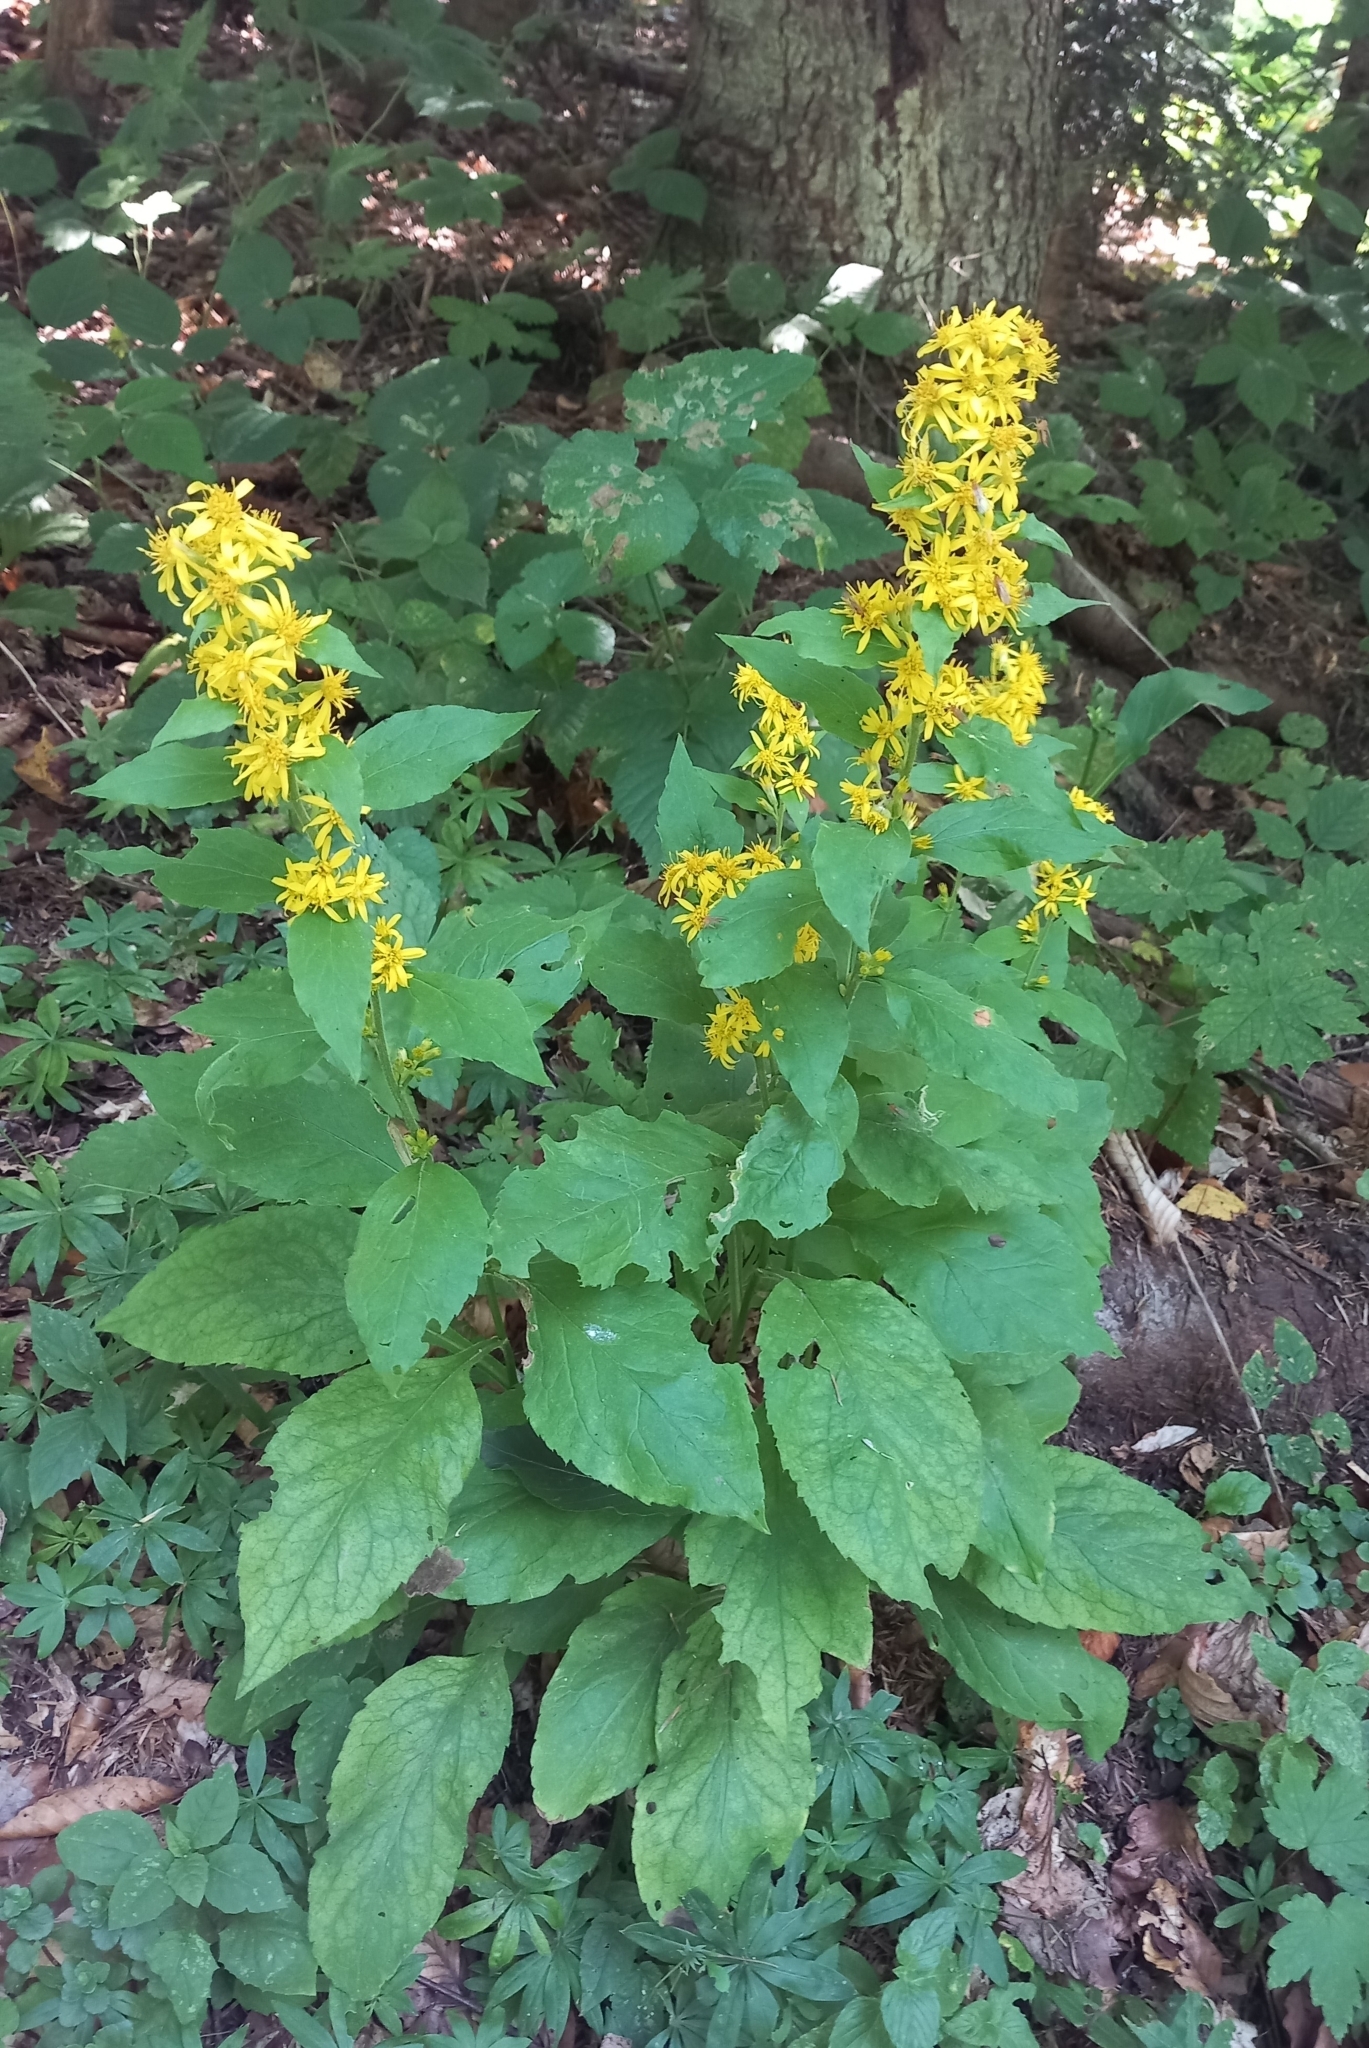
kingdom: Plantae
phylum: Tracheophyta
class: Magnoliopsida
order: Asterales
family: Asteraceae
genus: Solidago
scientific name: Solidago virgaurea
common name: Goldenrod
